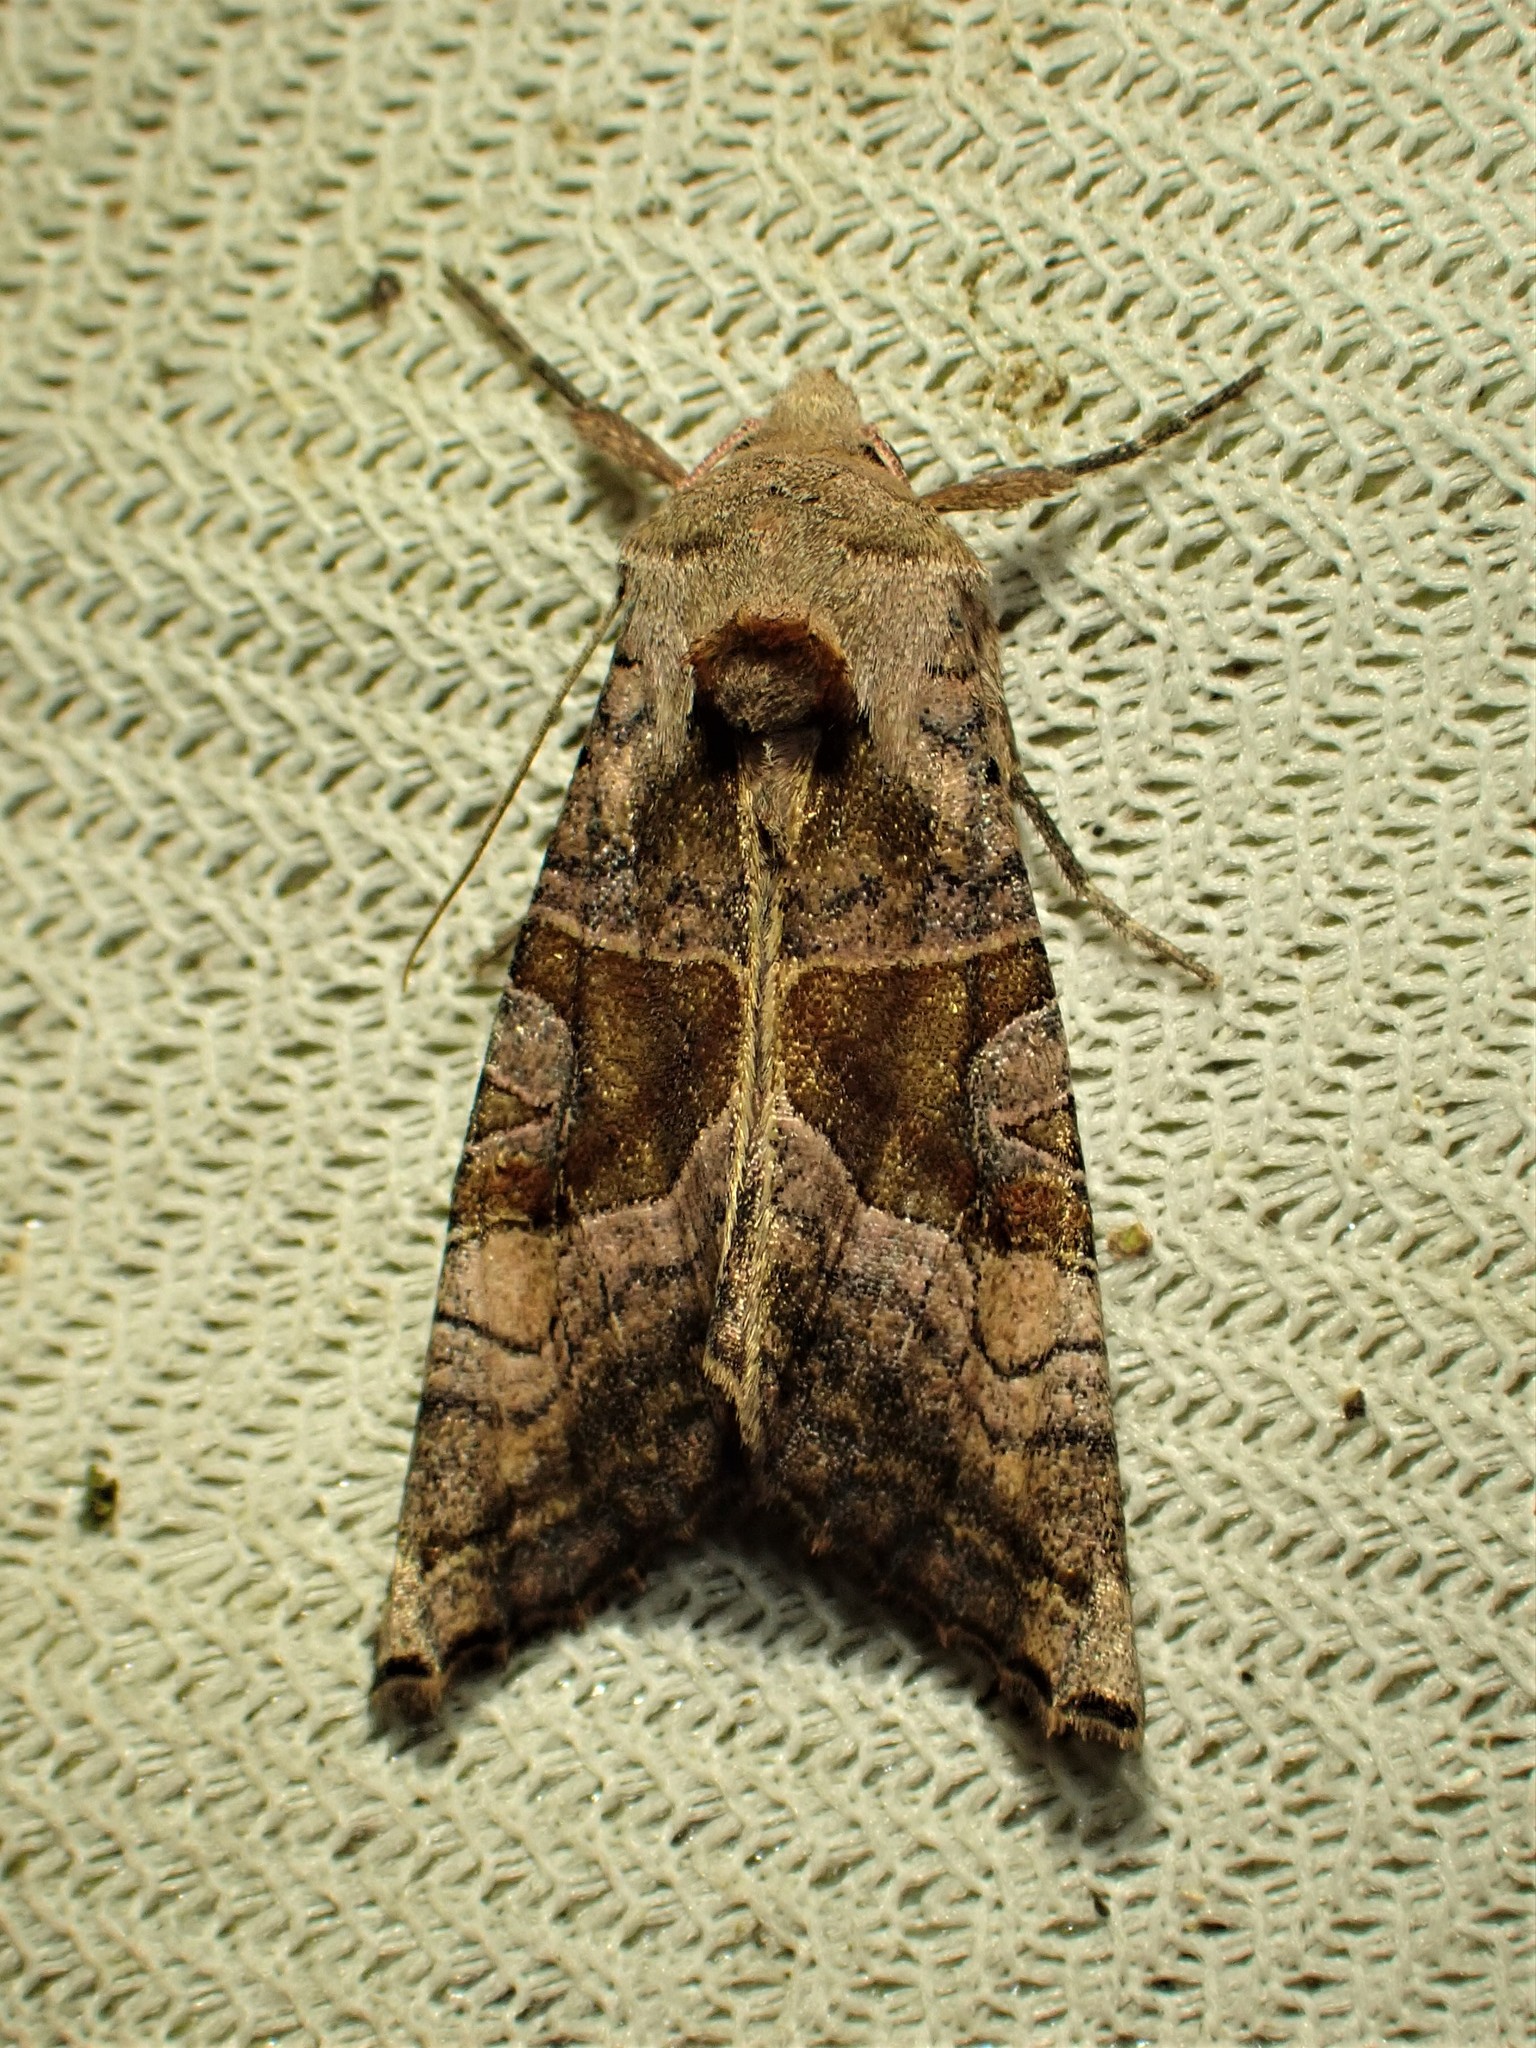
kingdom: Animalia
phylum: Arthropoda
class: Insecta
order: Lepidoptera
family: Noctuidae
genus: Phlogophora
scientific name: Phlogophora iris
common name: Olive angle shades
